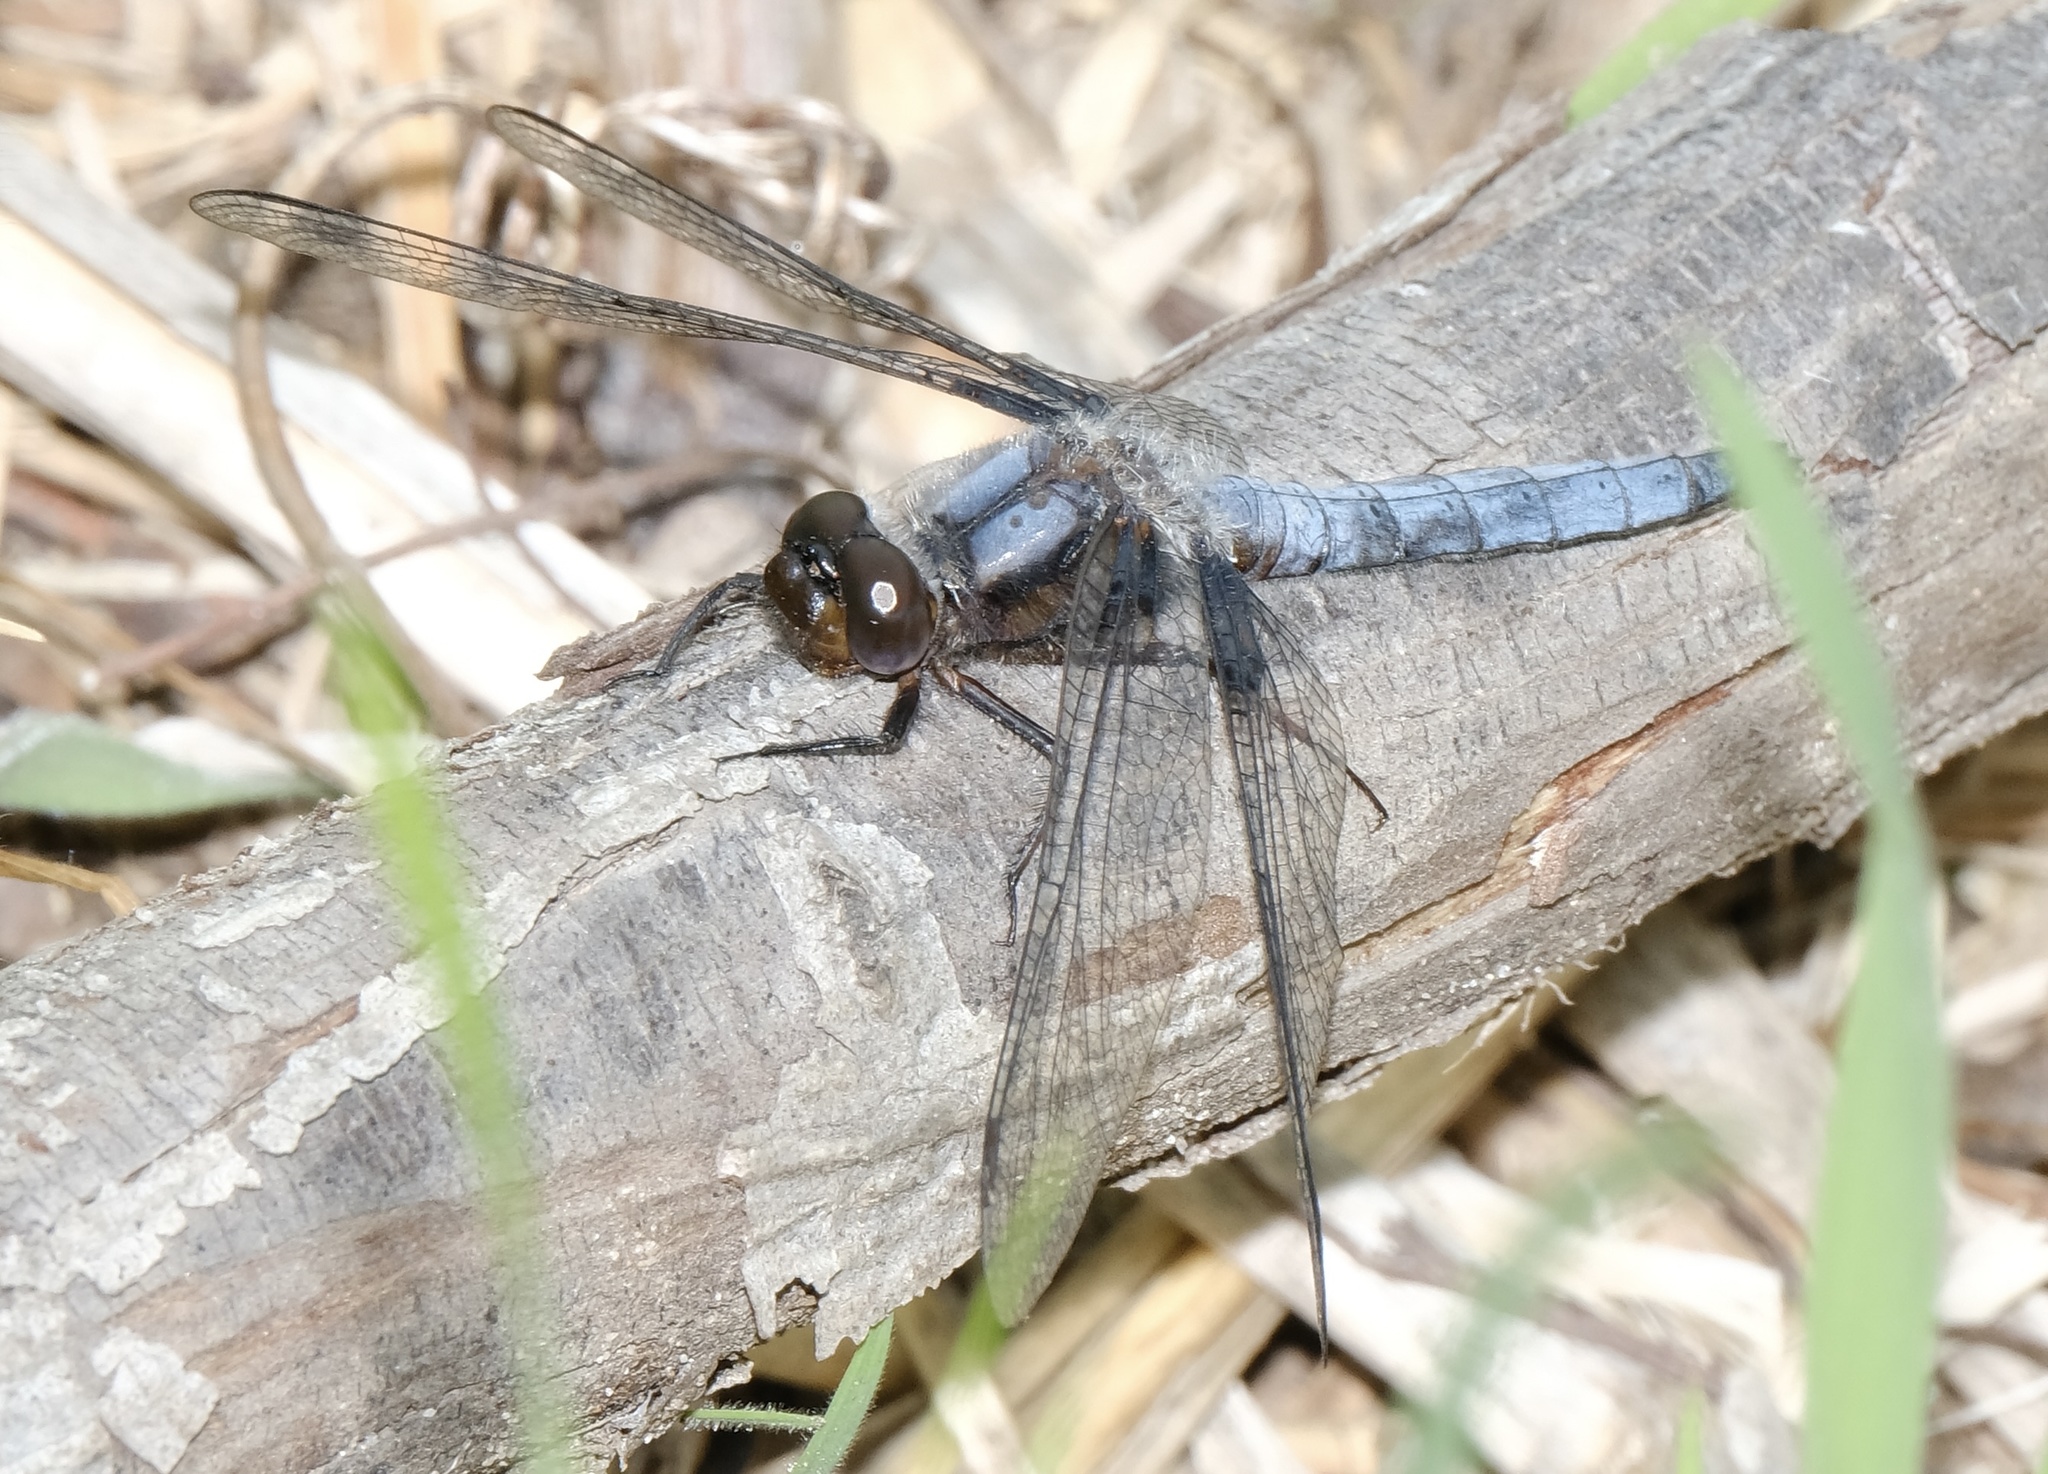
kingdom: Animalia
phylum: Arthropoda
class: Insecta
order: Odonata
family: Libellulidae
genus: Ladona
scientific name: Ladona deplanata
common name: Blue corporal
